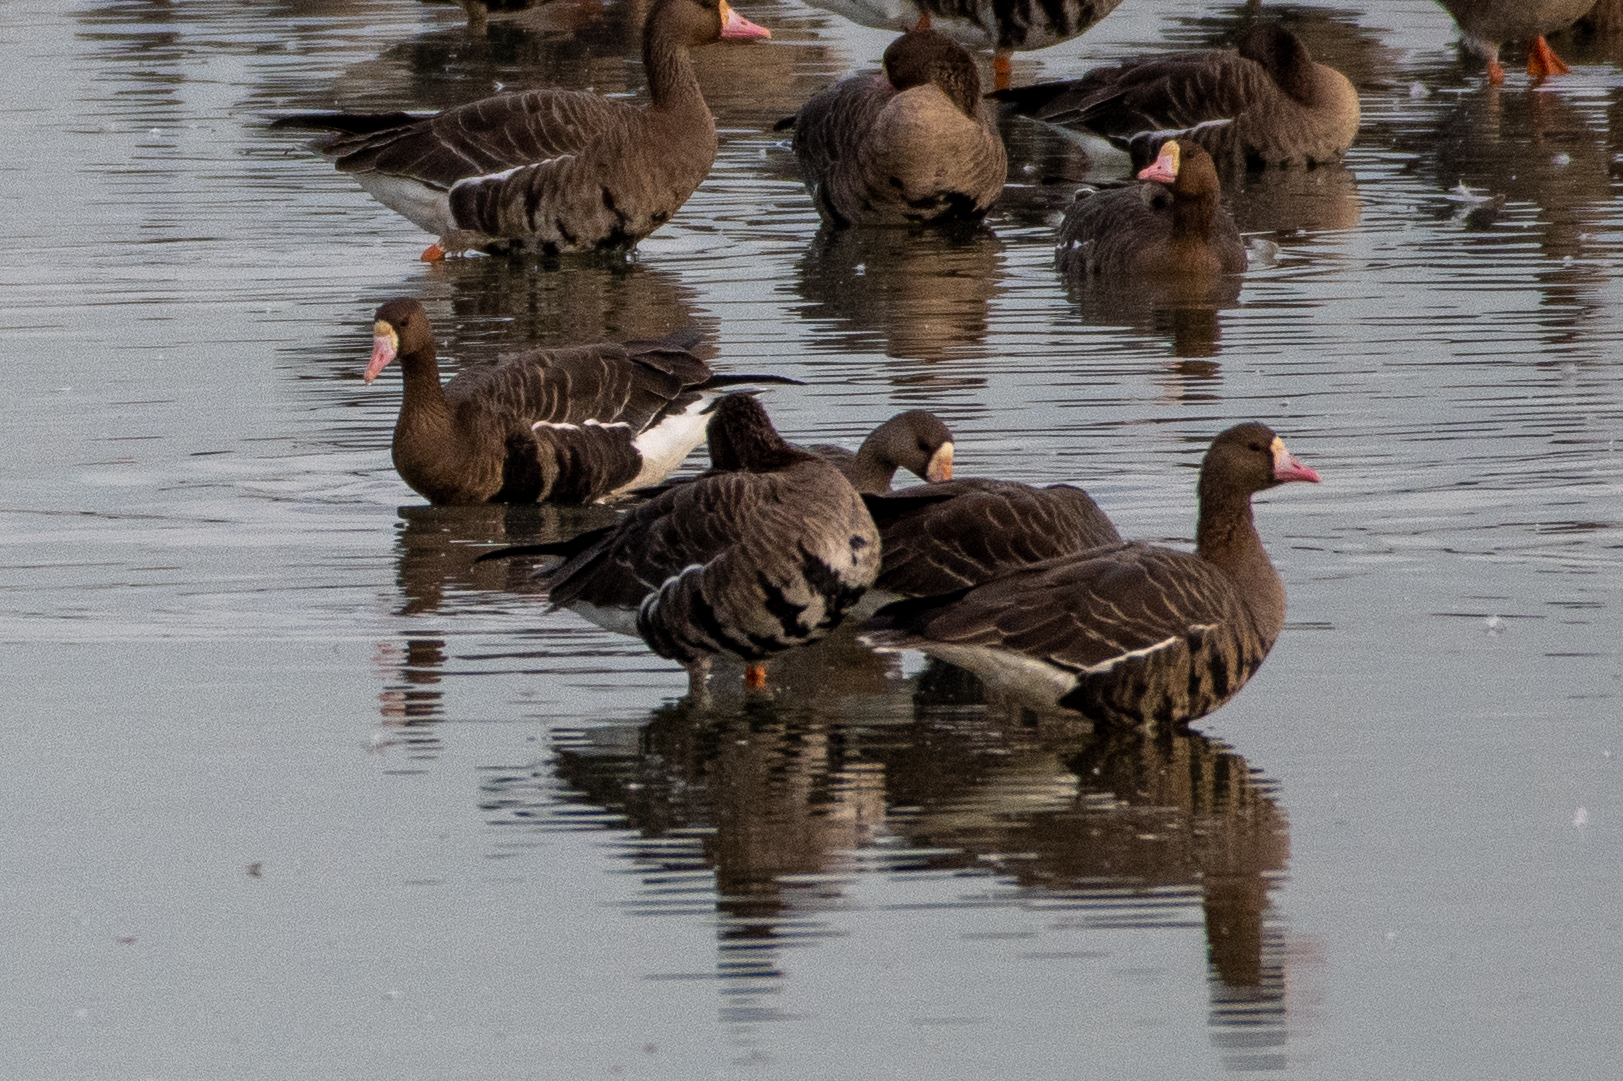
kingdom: Animalia
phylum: Chordata
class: Aves
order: Anseriformes
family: Anatidae
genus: Anser
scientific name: Anser albifrons
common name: Greater white-fronted goose
